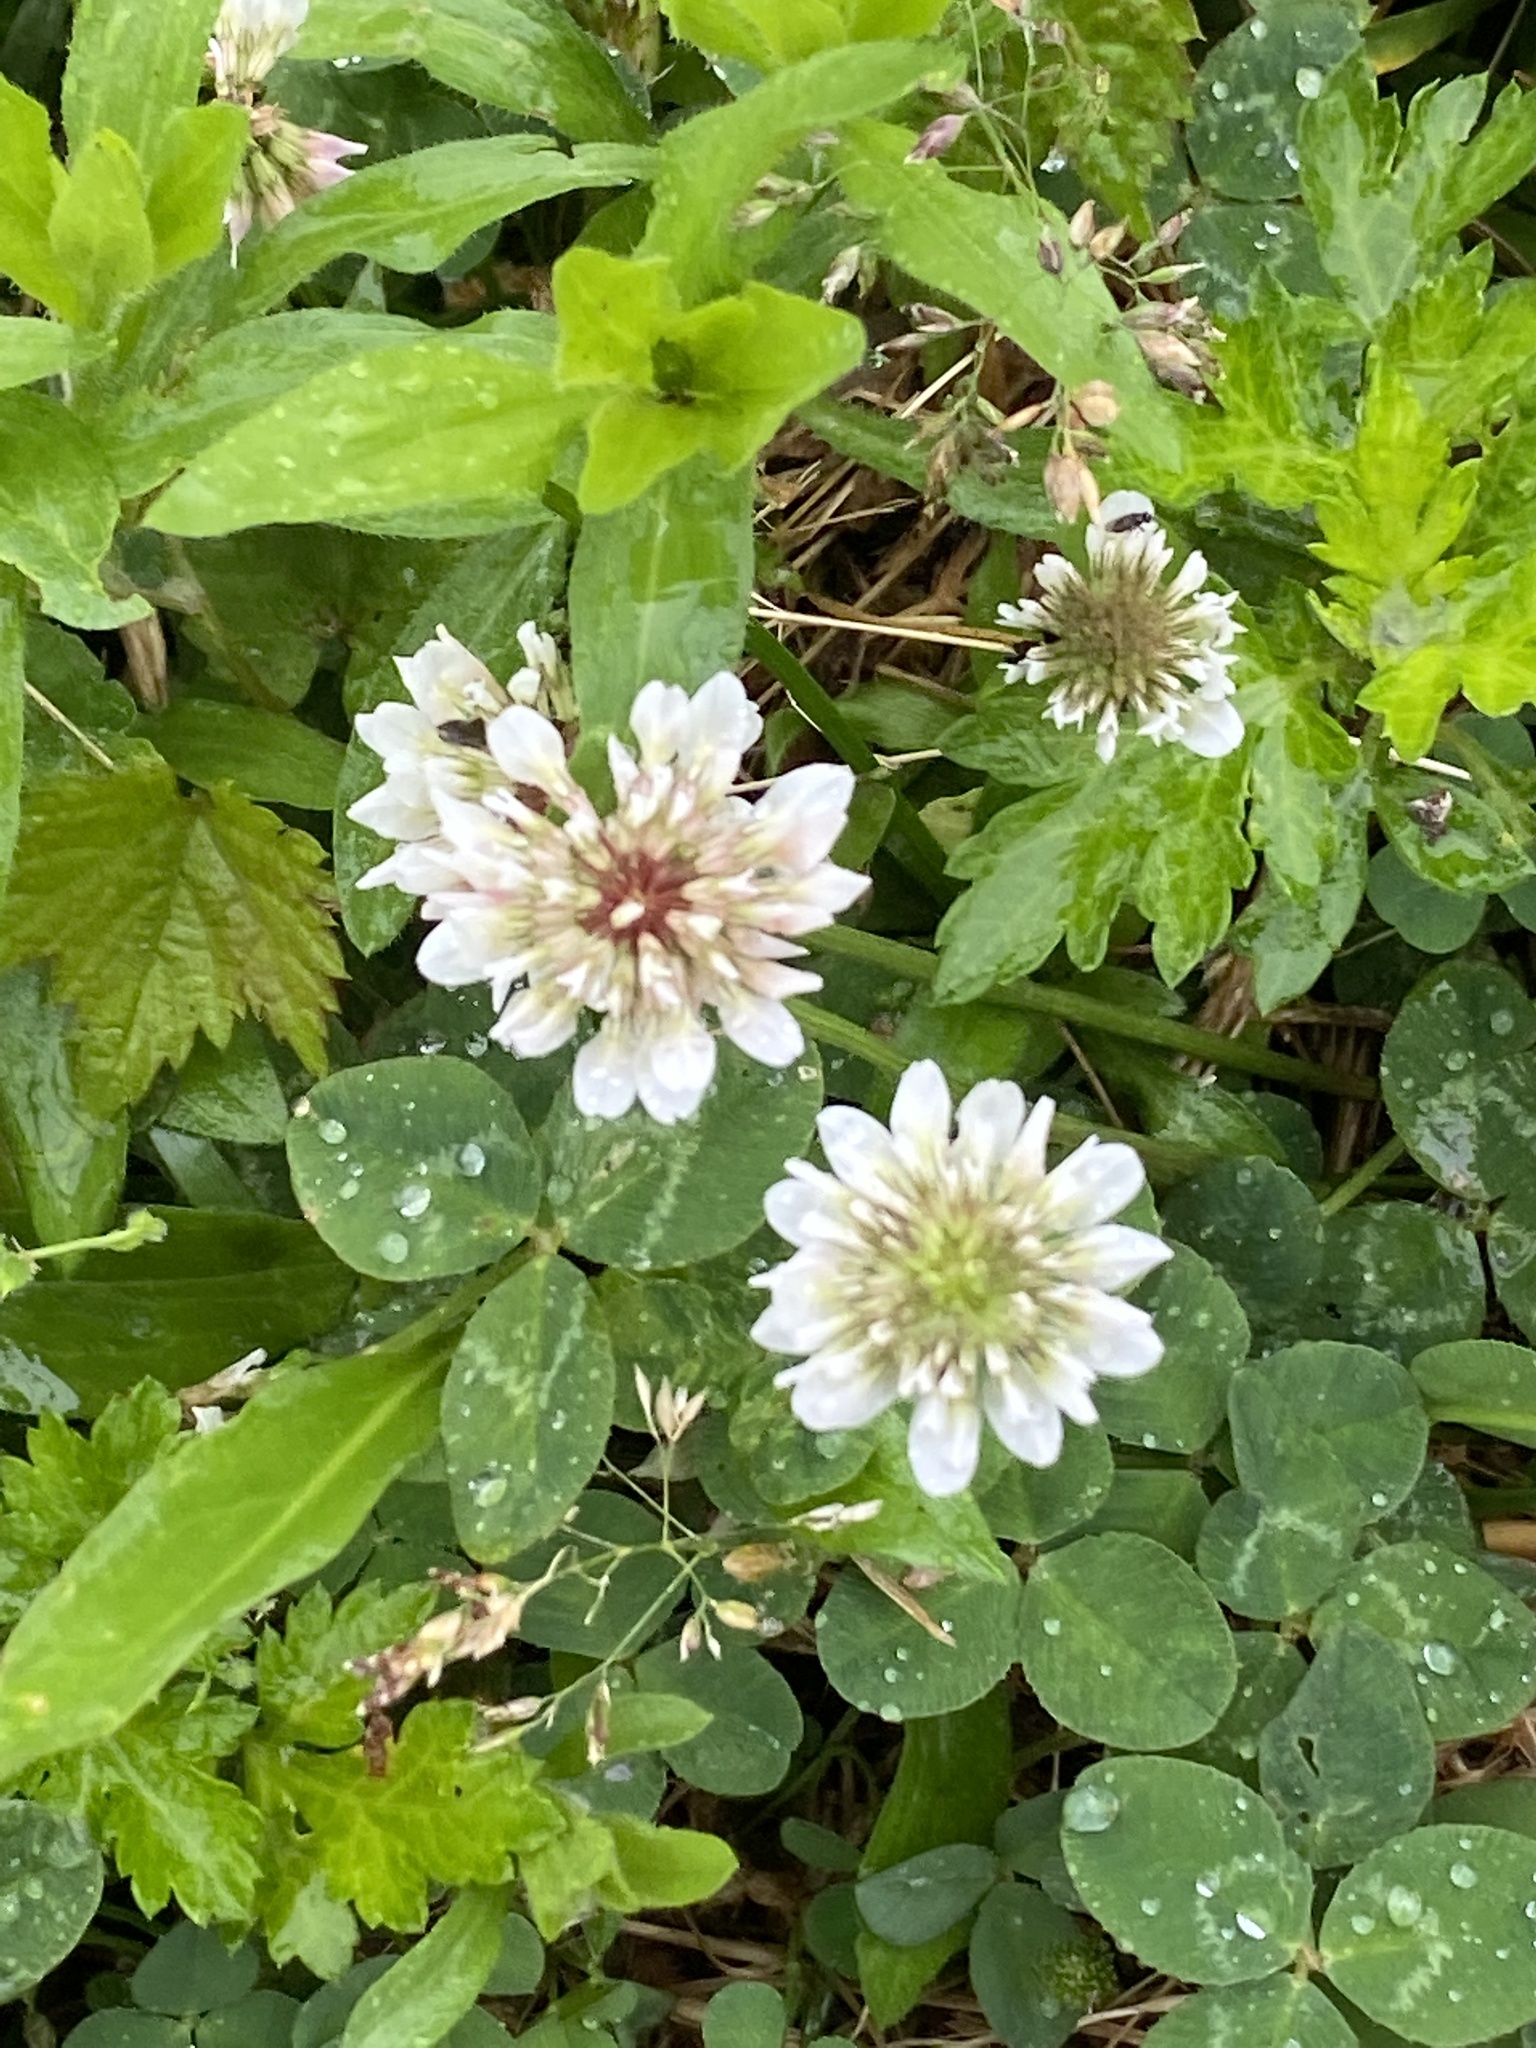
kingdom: Plantae
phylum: Tracheophyta
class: Magnoliopsida
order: Fabales
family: Fabaceae
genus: Trifolium
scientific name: Trifolium repens
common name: White clover
